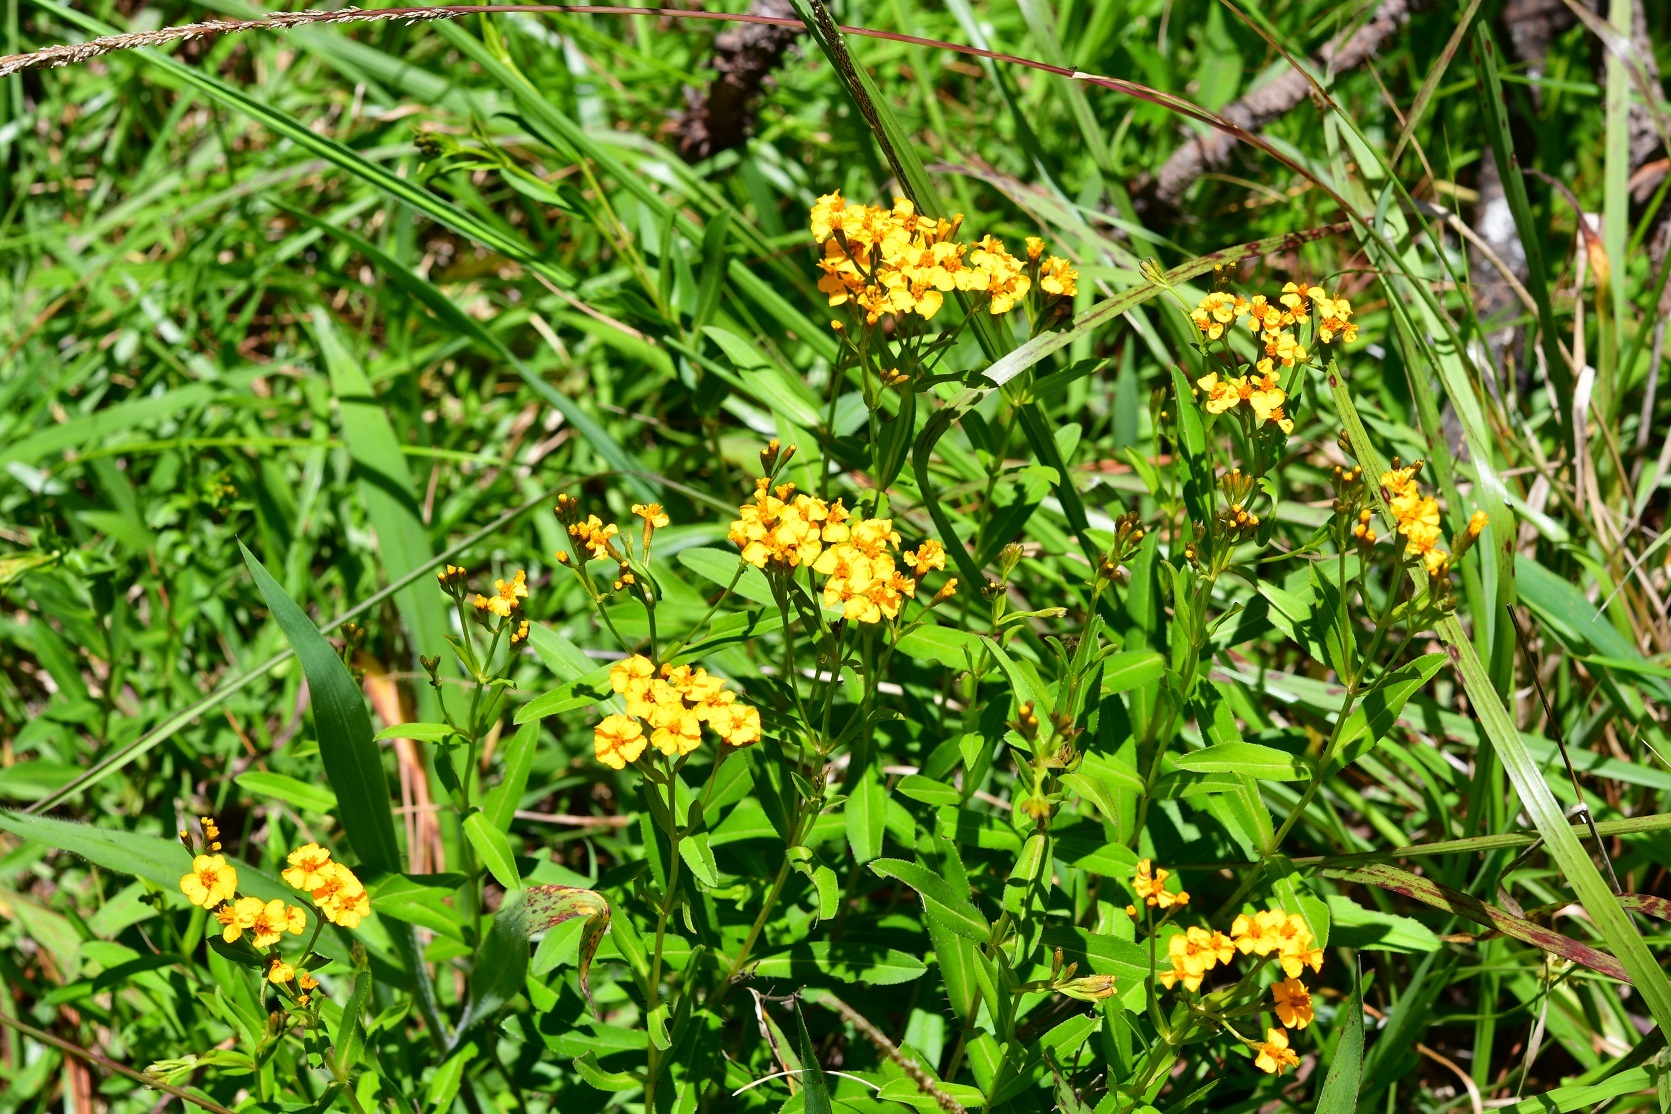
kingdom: Plantae
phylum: Tracheophyta
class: Magnoliopsida
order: Asterales
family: Asteraceae
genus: Tagetes
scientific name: Tagetes lucida
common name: Sweetscented marigold
